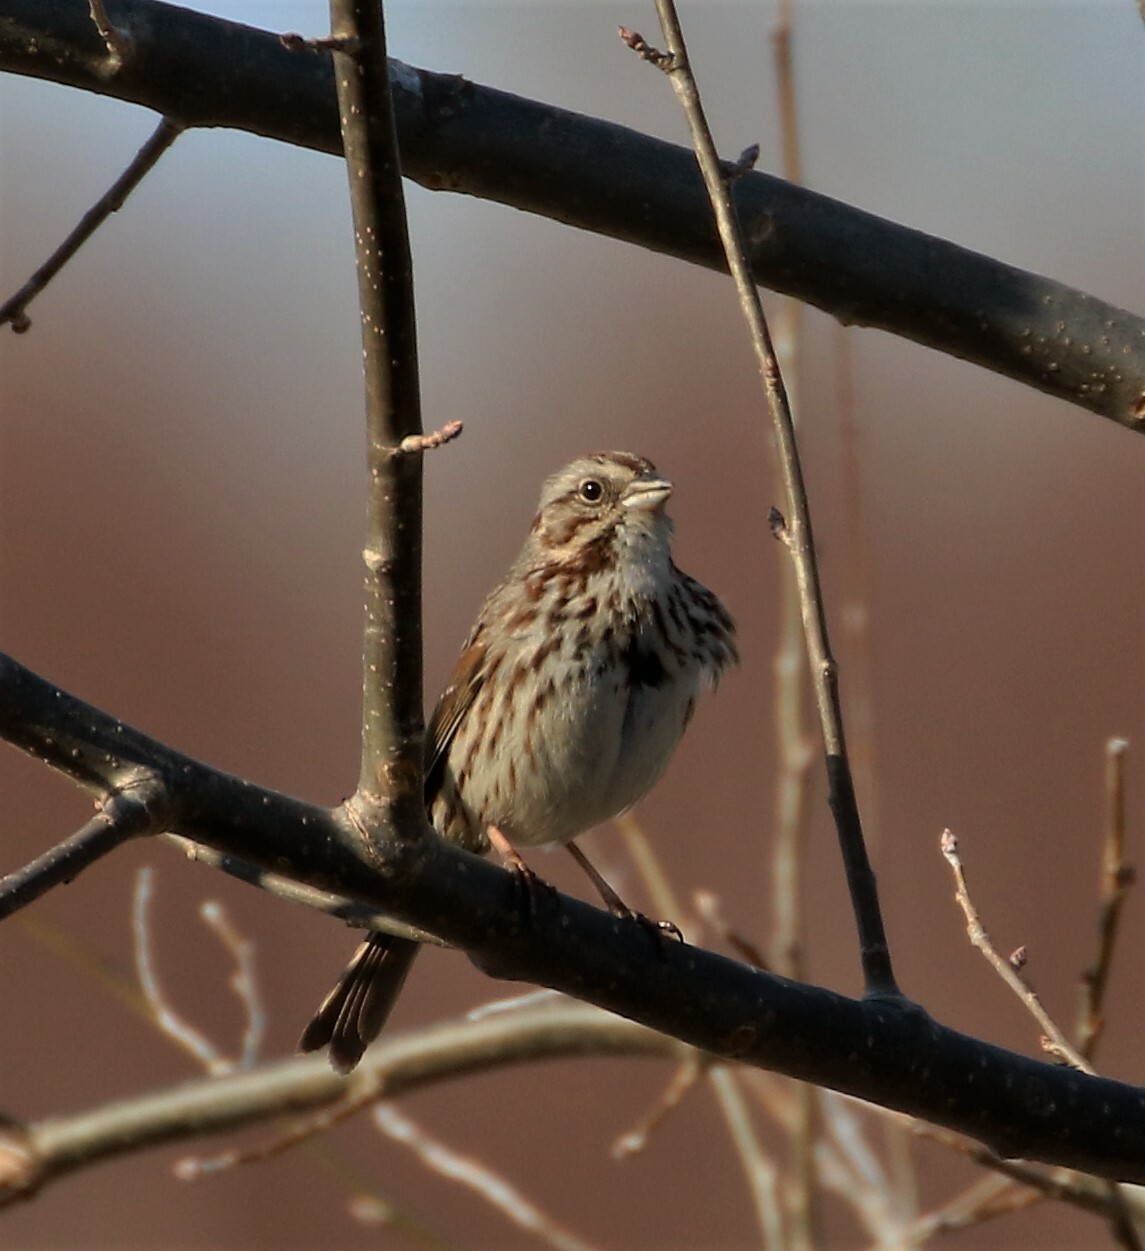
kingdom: Animalia
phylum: Chordata
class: Aves
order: Passeriformes
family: Passerellidae
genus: Melospiza
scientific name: Melospiza melodia
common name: Song sparrow
